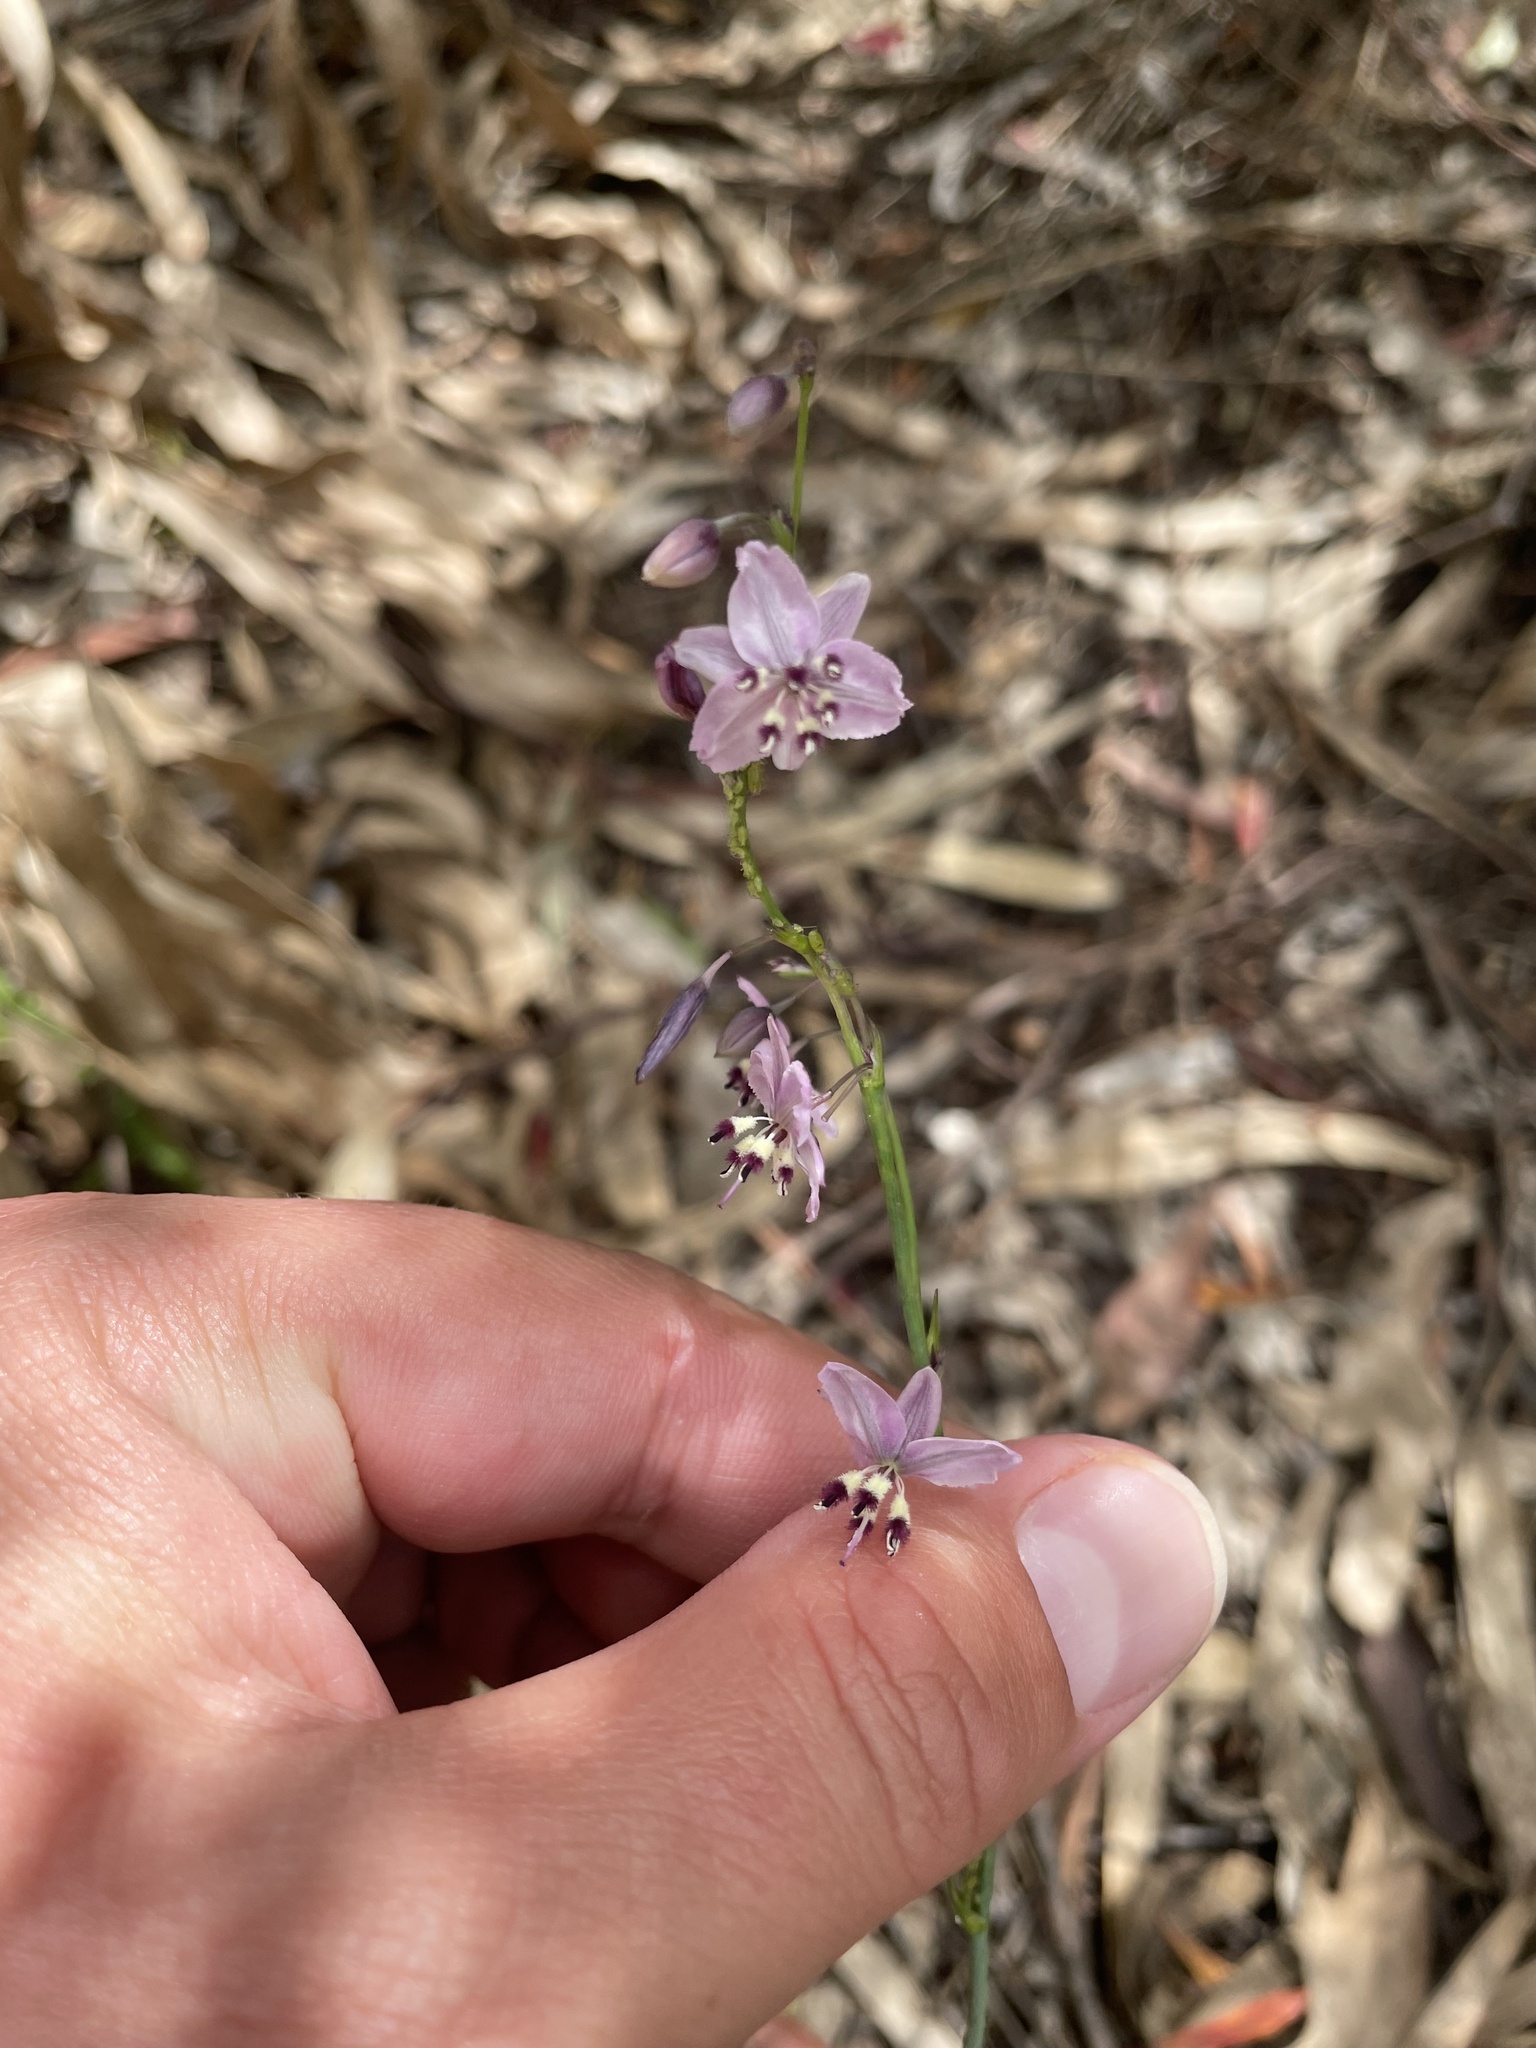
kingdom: Plantae
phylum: Tracheophyta
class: Liliopsida
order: Asparagales
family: Asparagaceae
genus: Arthropodium
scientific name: Arthropodium milleflorum
